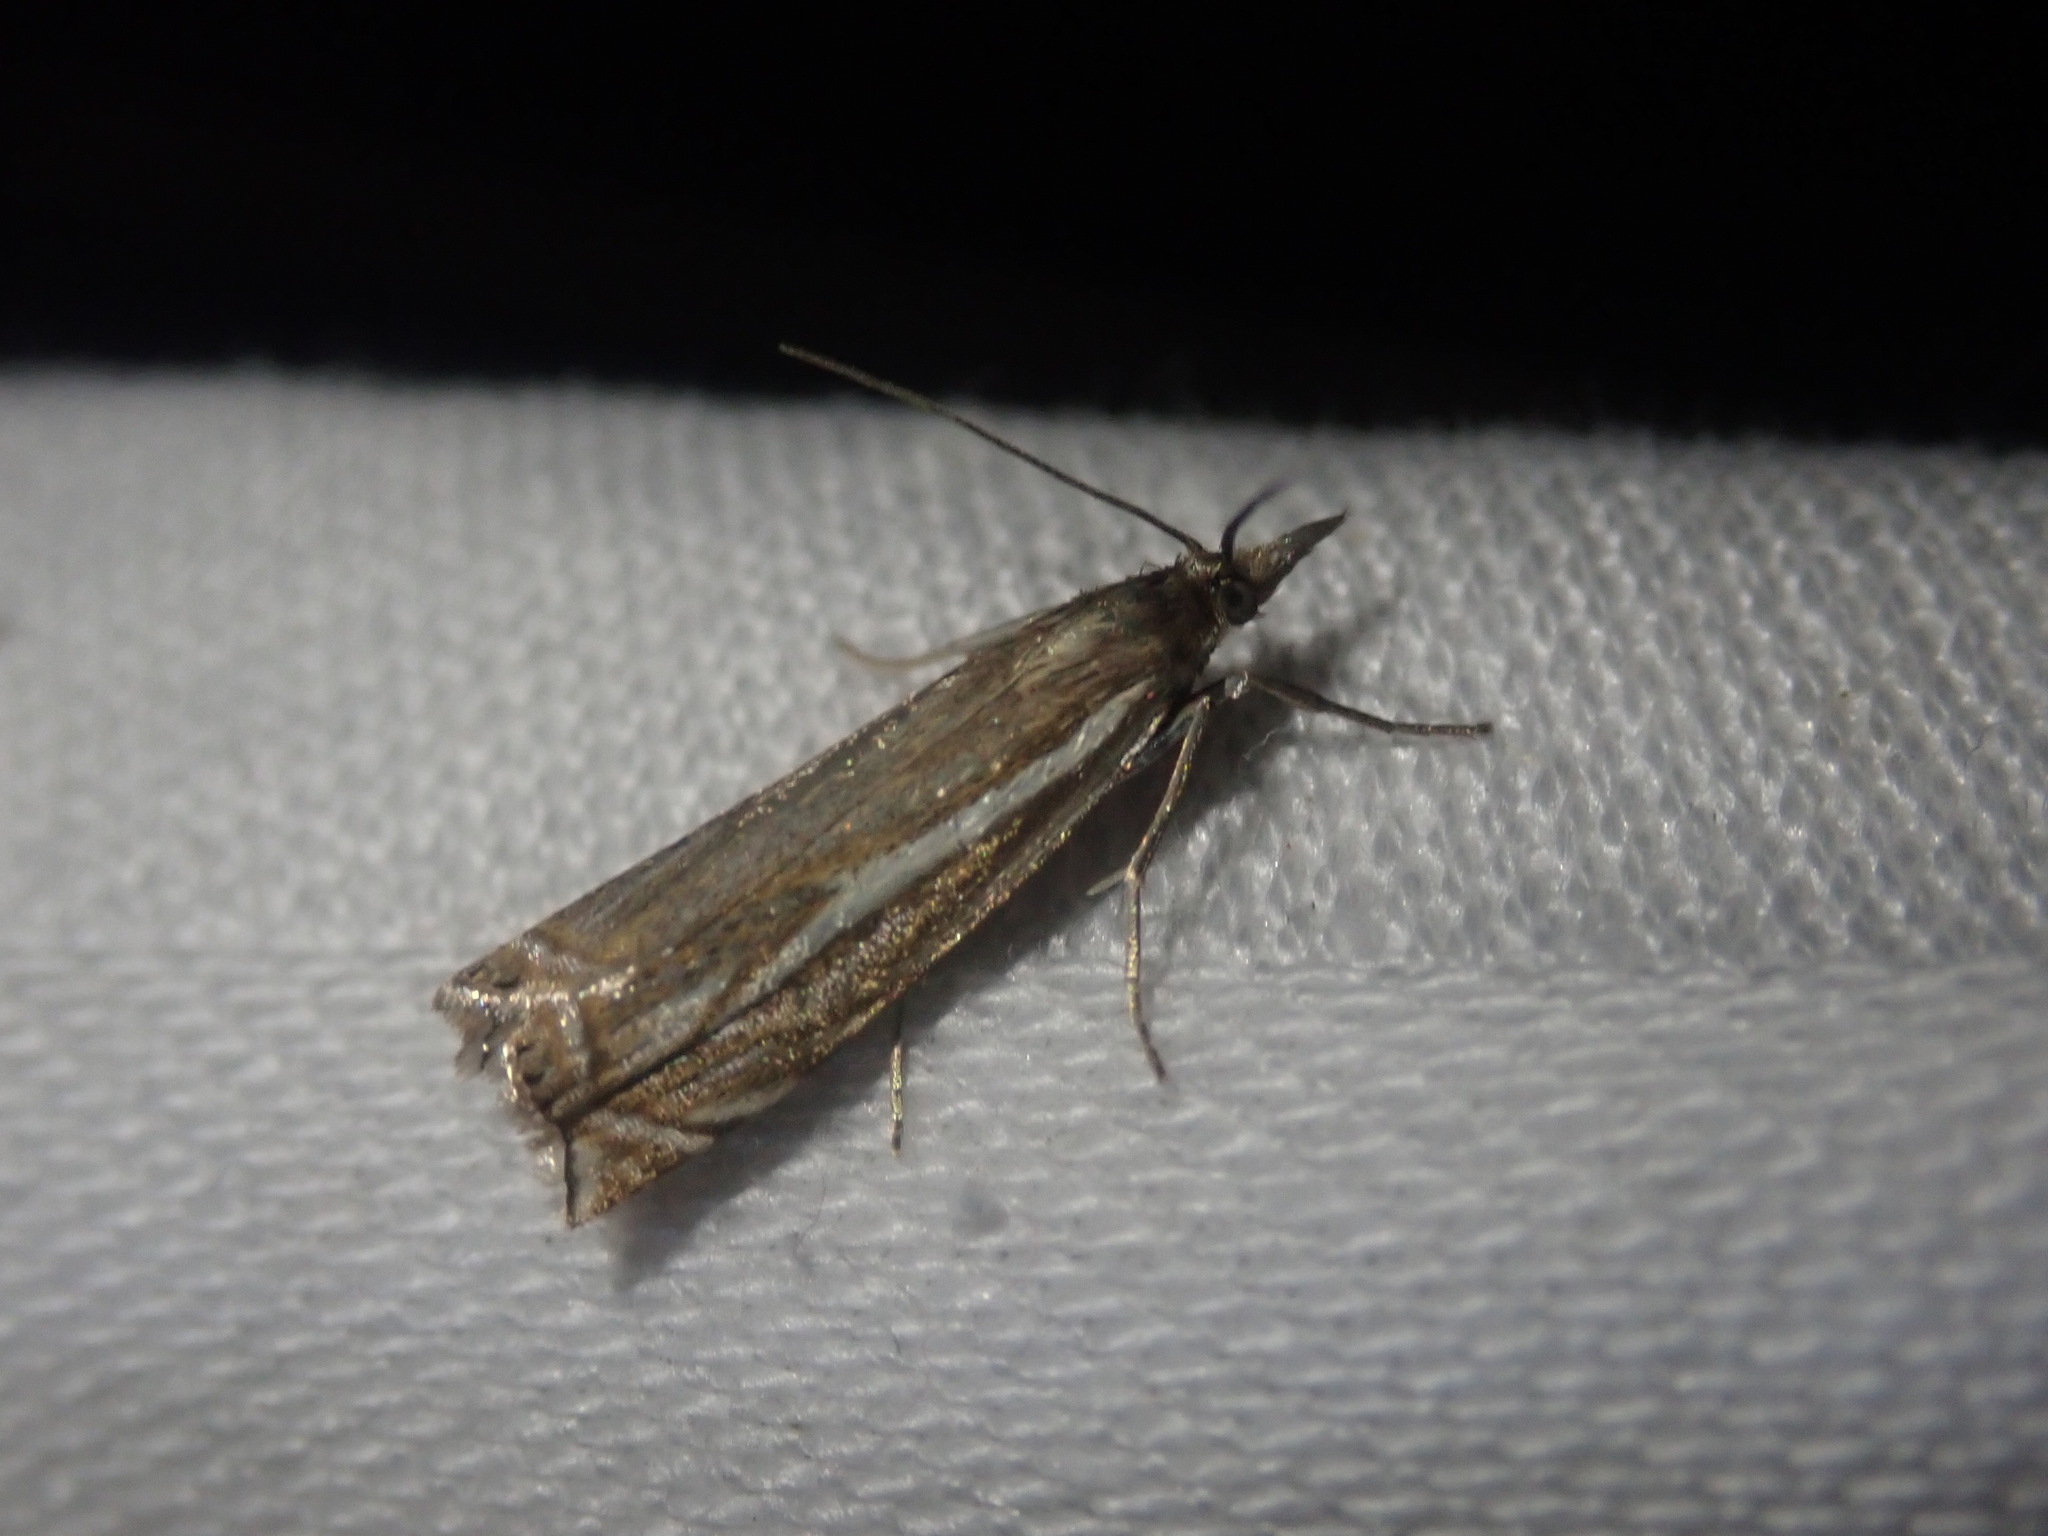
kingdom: Animalia
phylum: Arthropoda
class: Insecta
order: Lepidoptera
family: Crambidae
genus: Crambus
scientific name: Crambus nemorella
